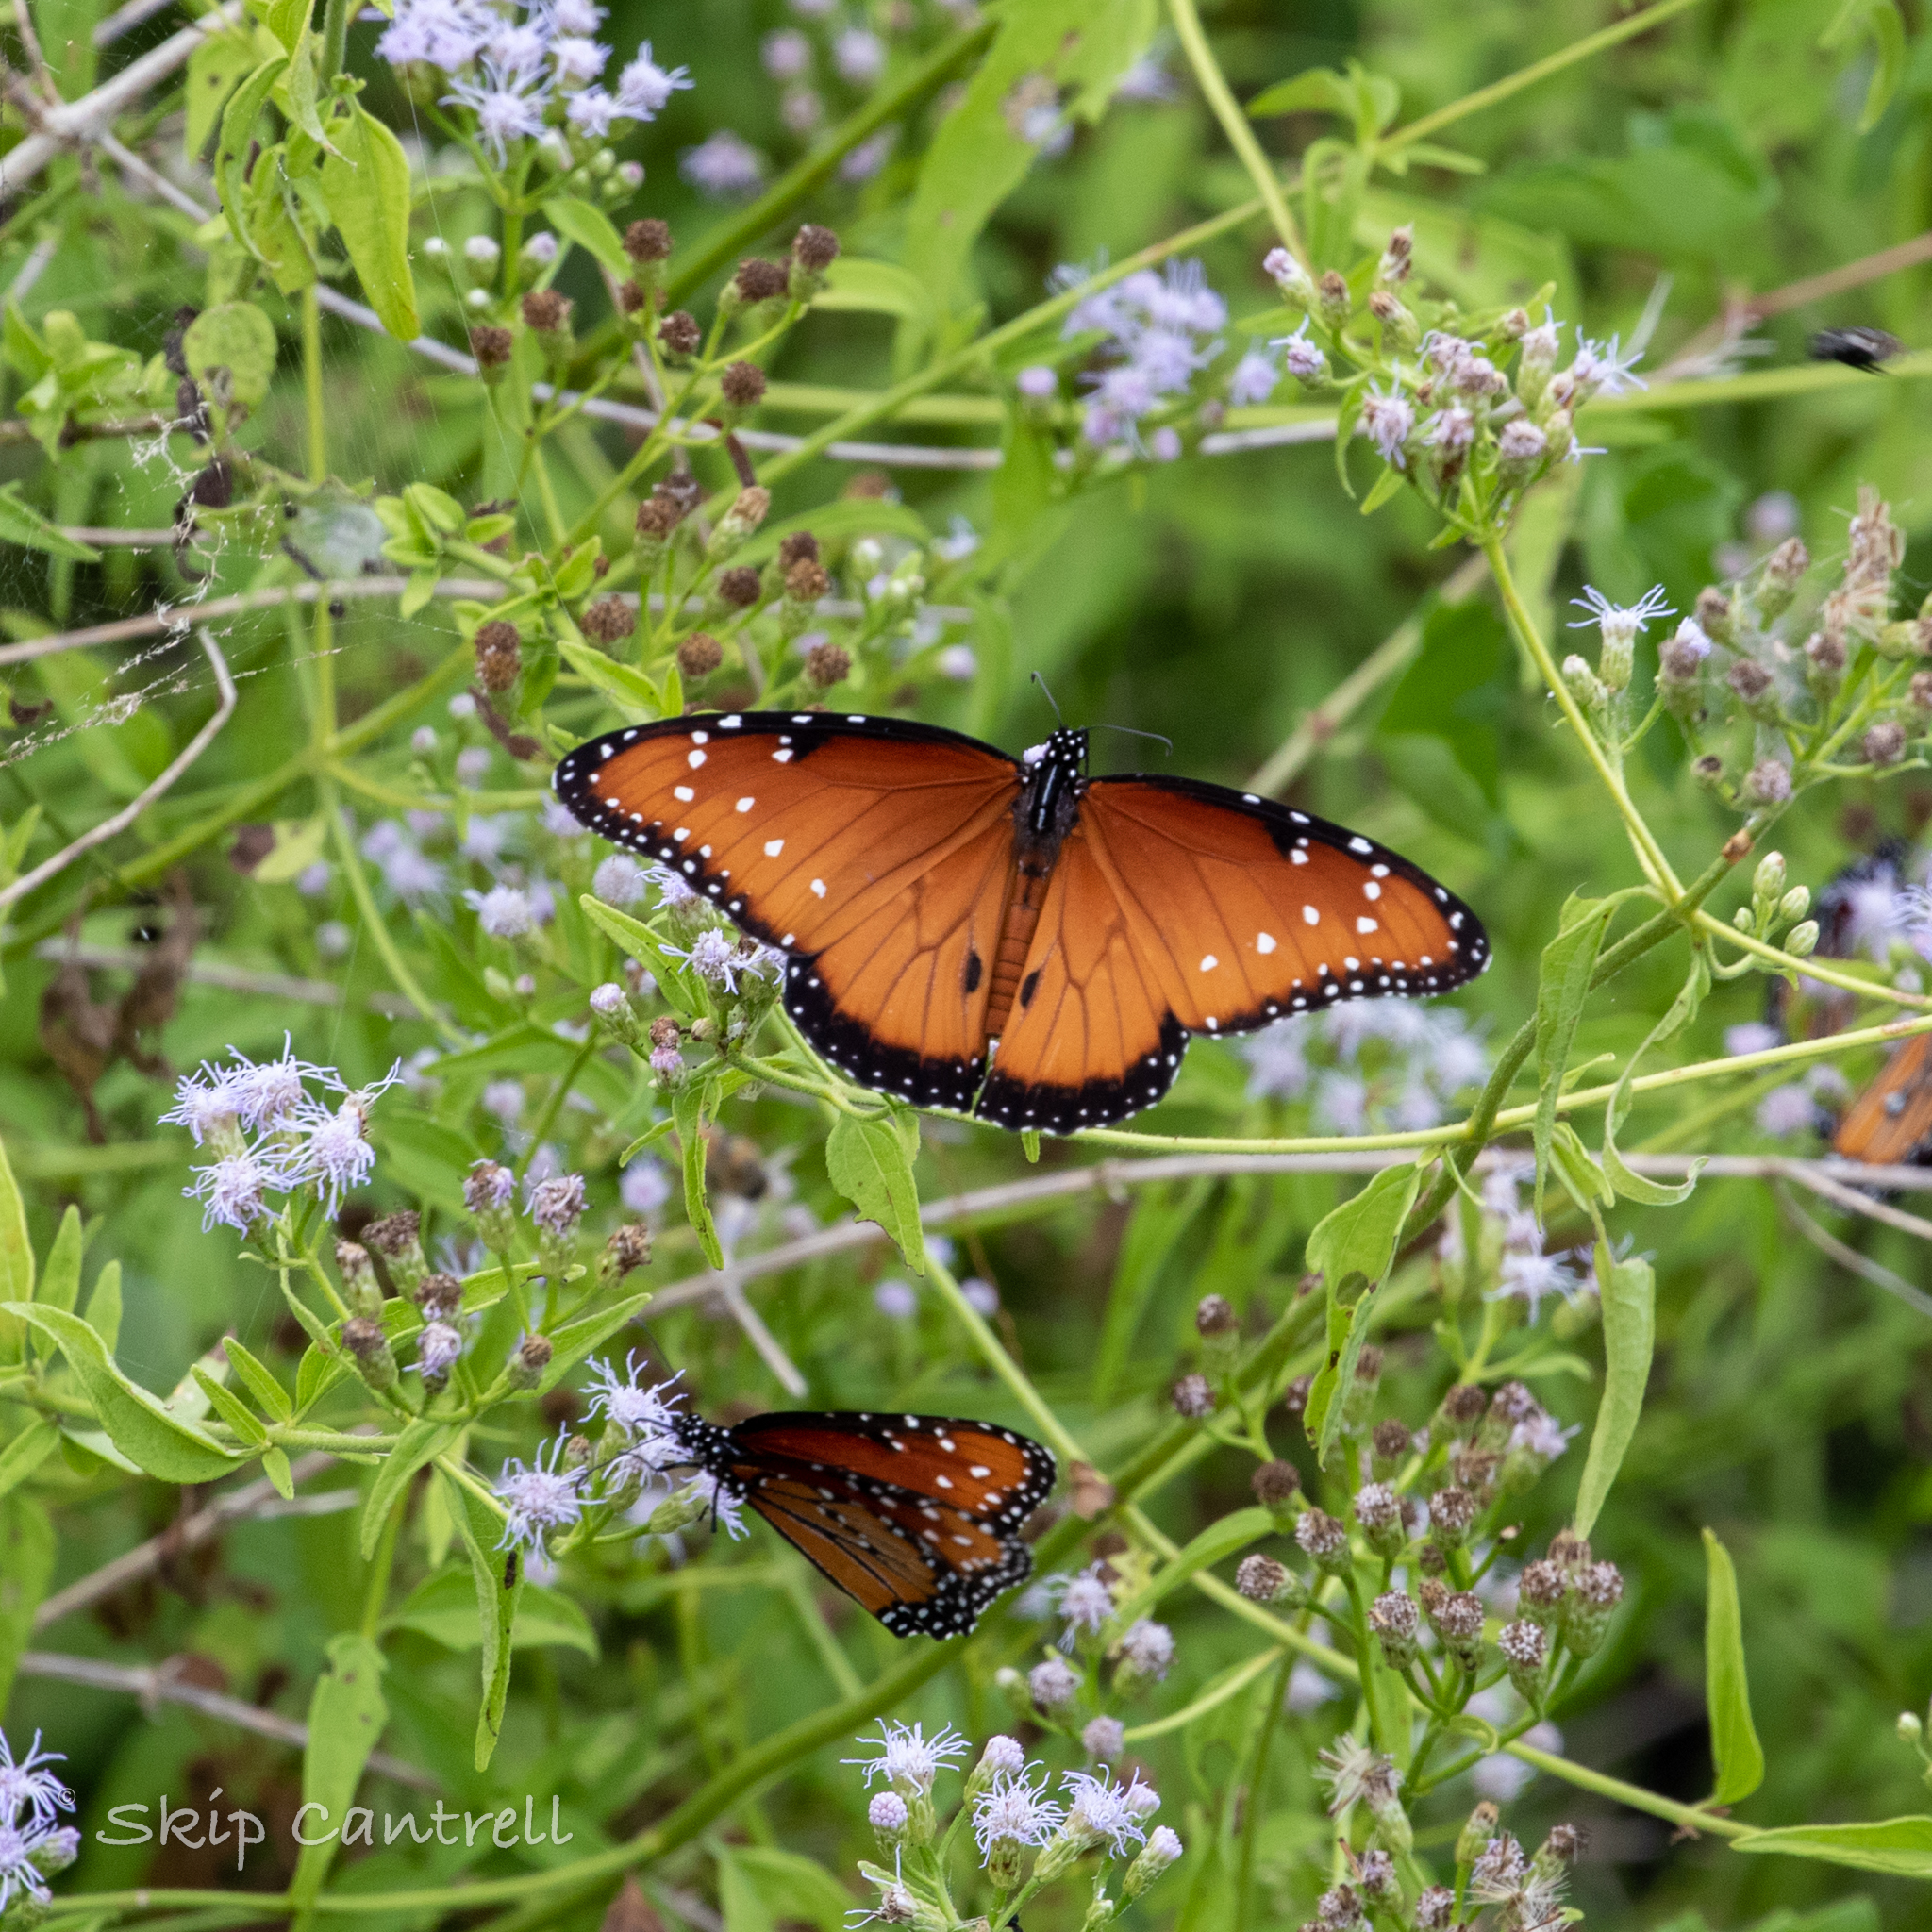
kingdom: Animalia
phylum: Arthropoda
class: Insecta
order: Lepidoptera
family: Nymphalidae
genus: Danaus
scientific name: Danaus gilippus
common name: Queen
